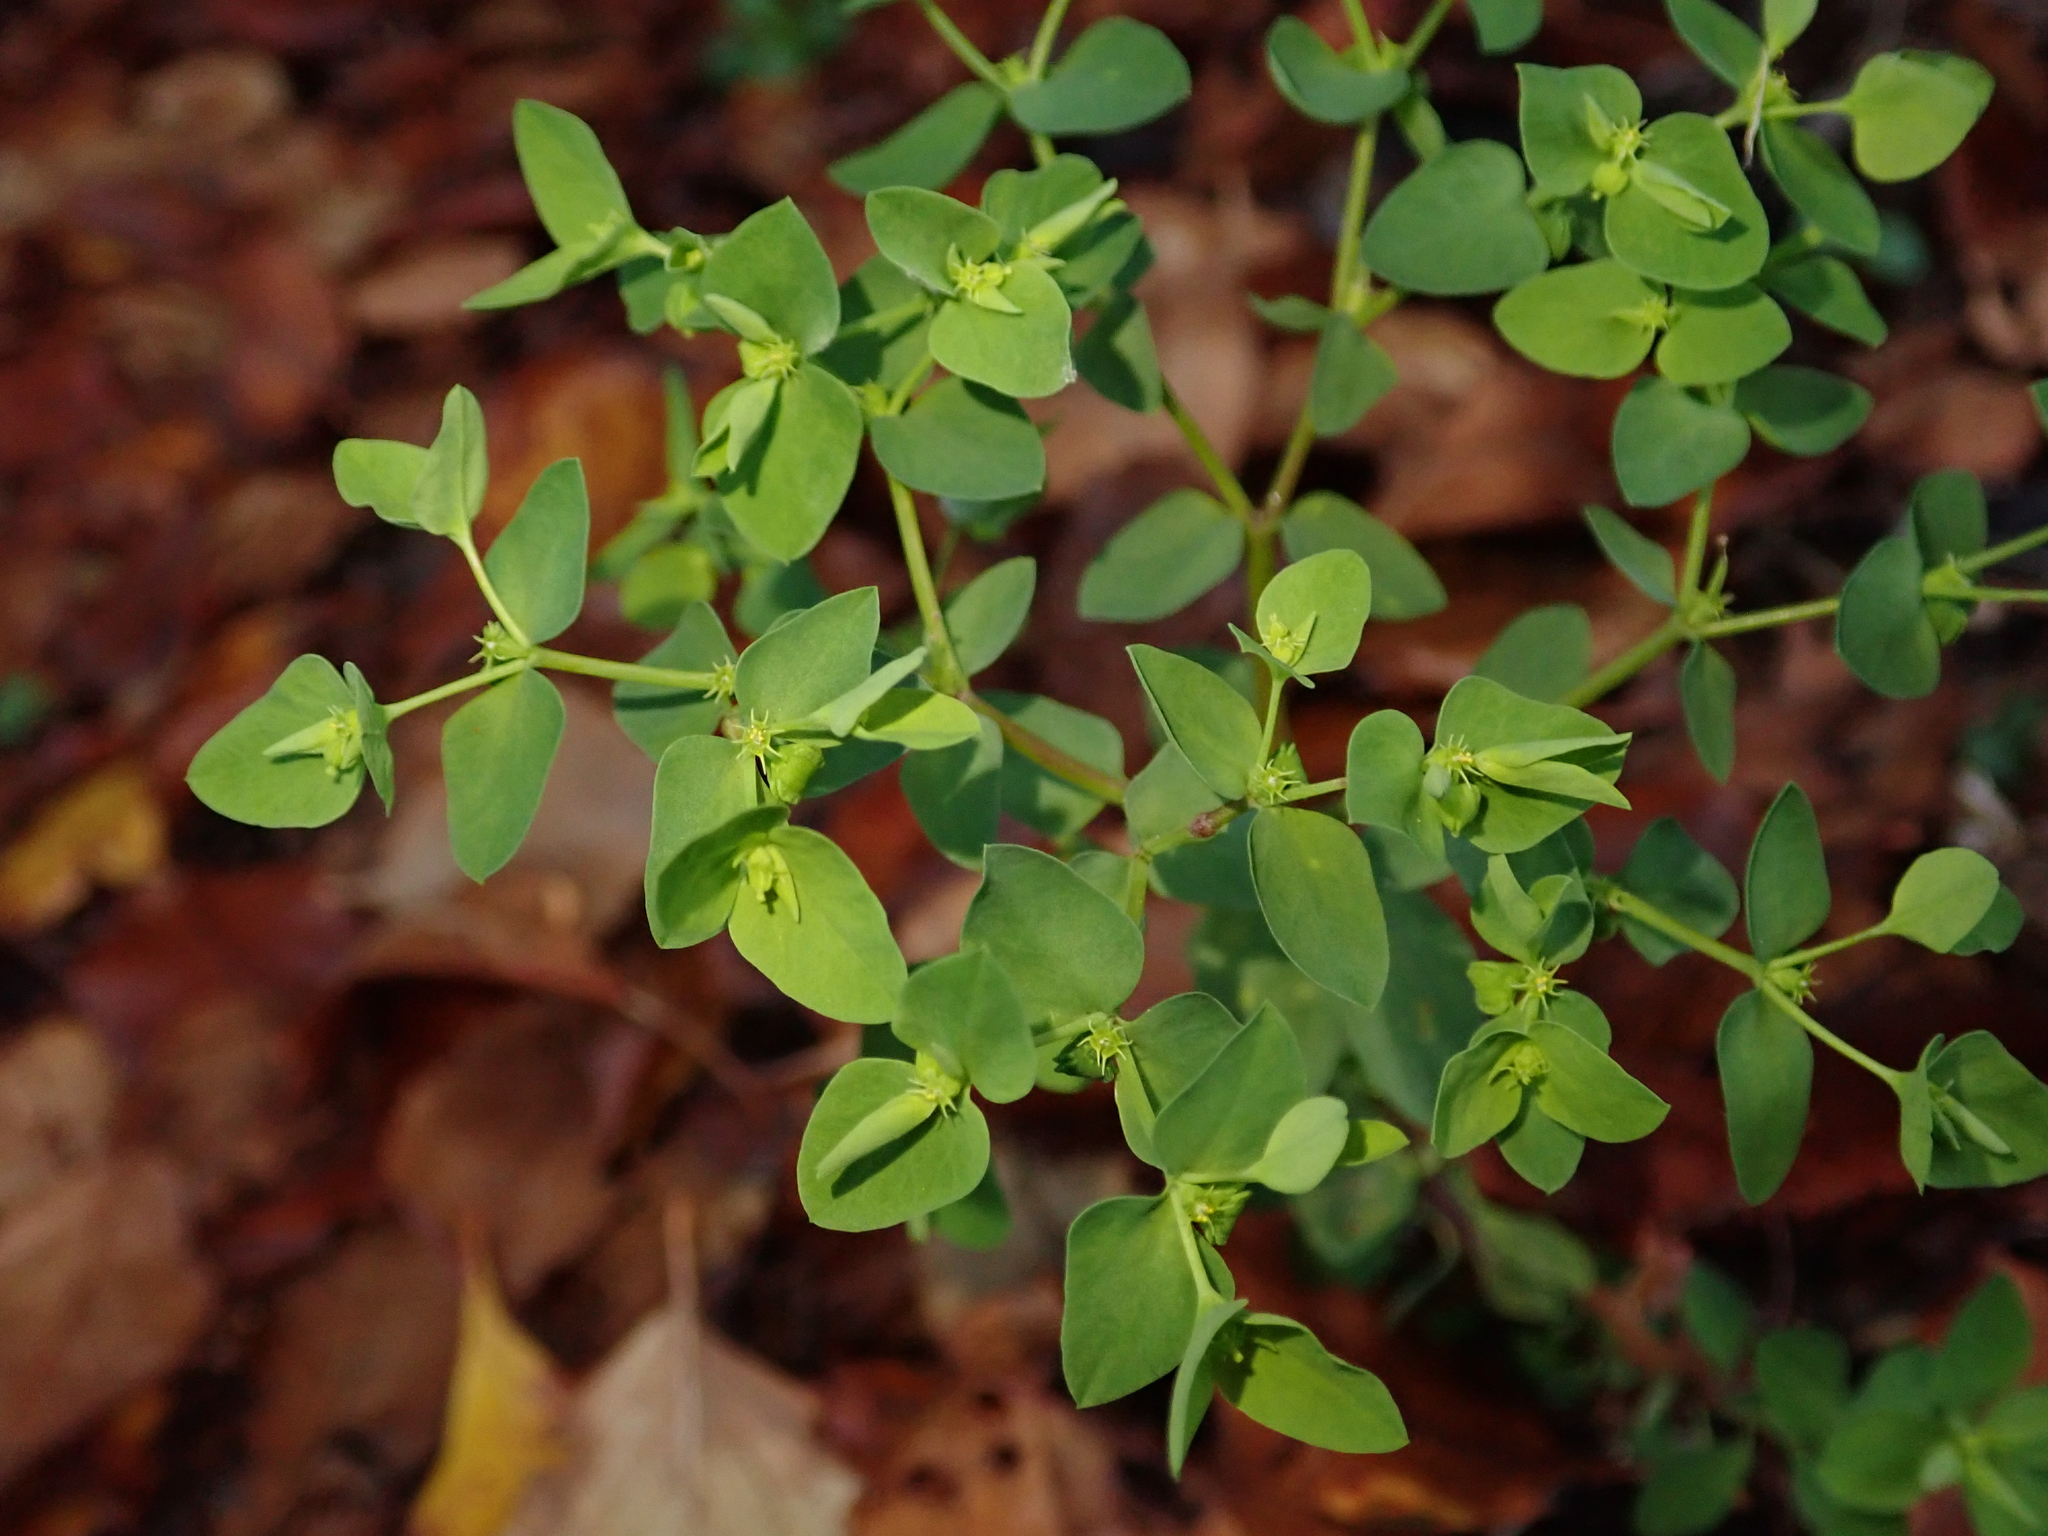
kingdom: Plantae
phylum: Tracheophyta
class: Magnoliopsida
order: Malpighiales
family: Euphorbiaceae
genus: Euphorbia
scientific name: Euphorbia peplus
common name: Petty spurge
